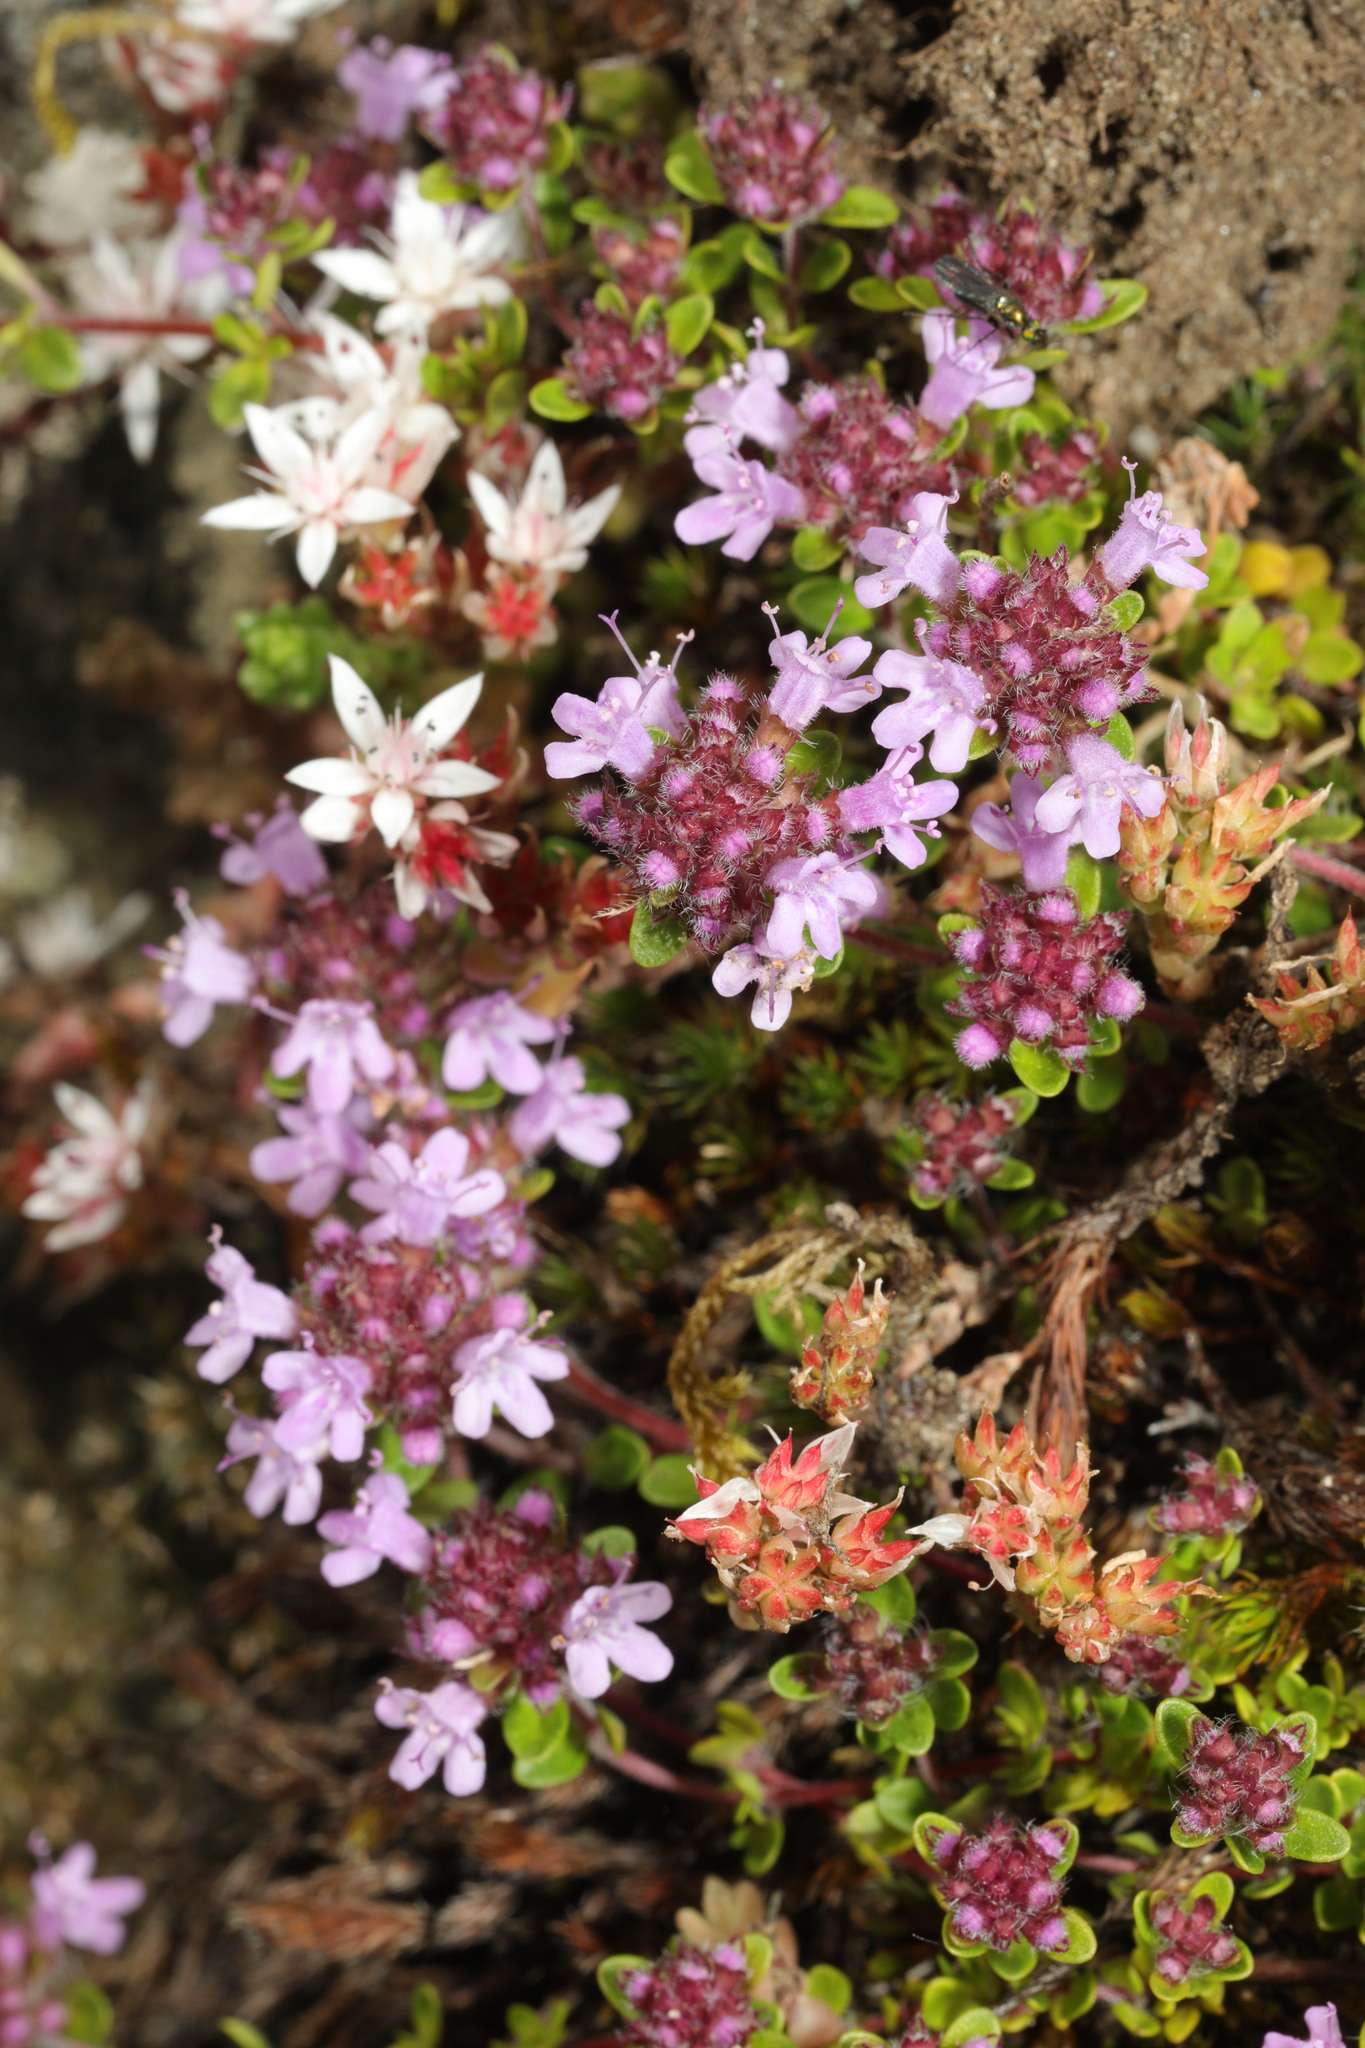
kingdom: Plantae
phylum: Tracheophyta
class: Magnoliopsida
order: Lamiales
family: Lamiaceae
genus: Thymus
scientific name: Thymus praecox
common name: Wild thyme
